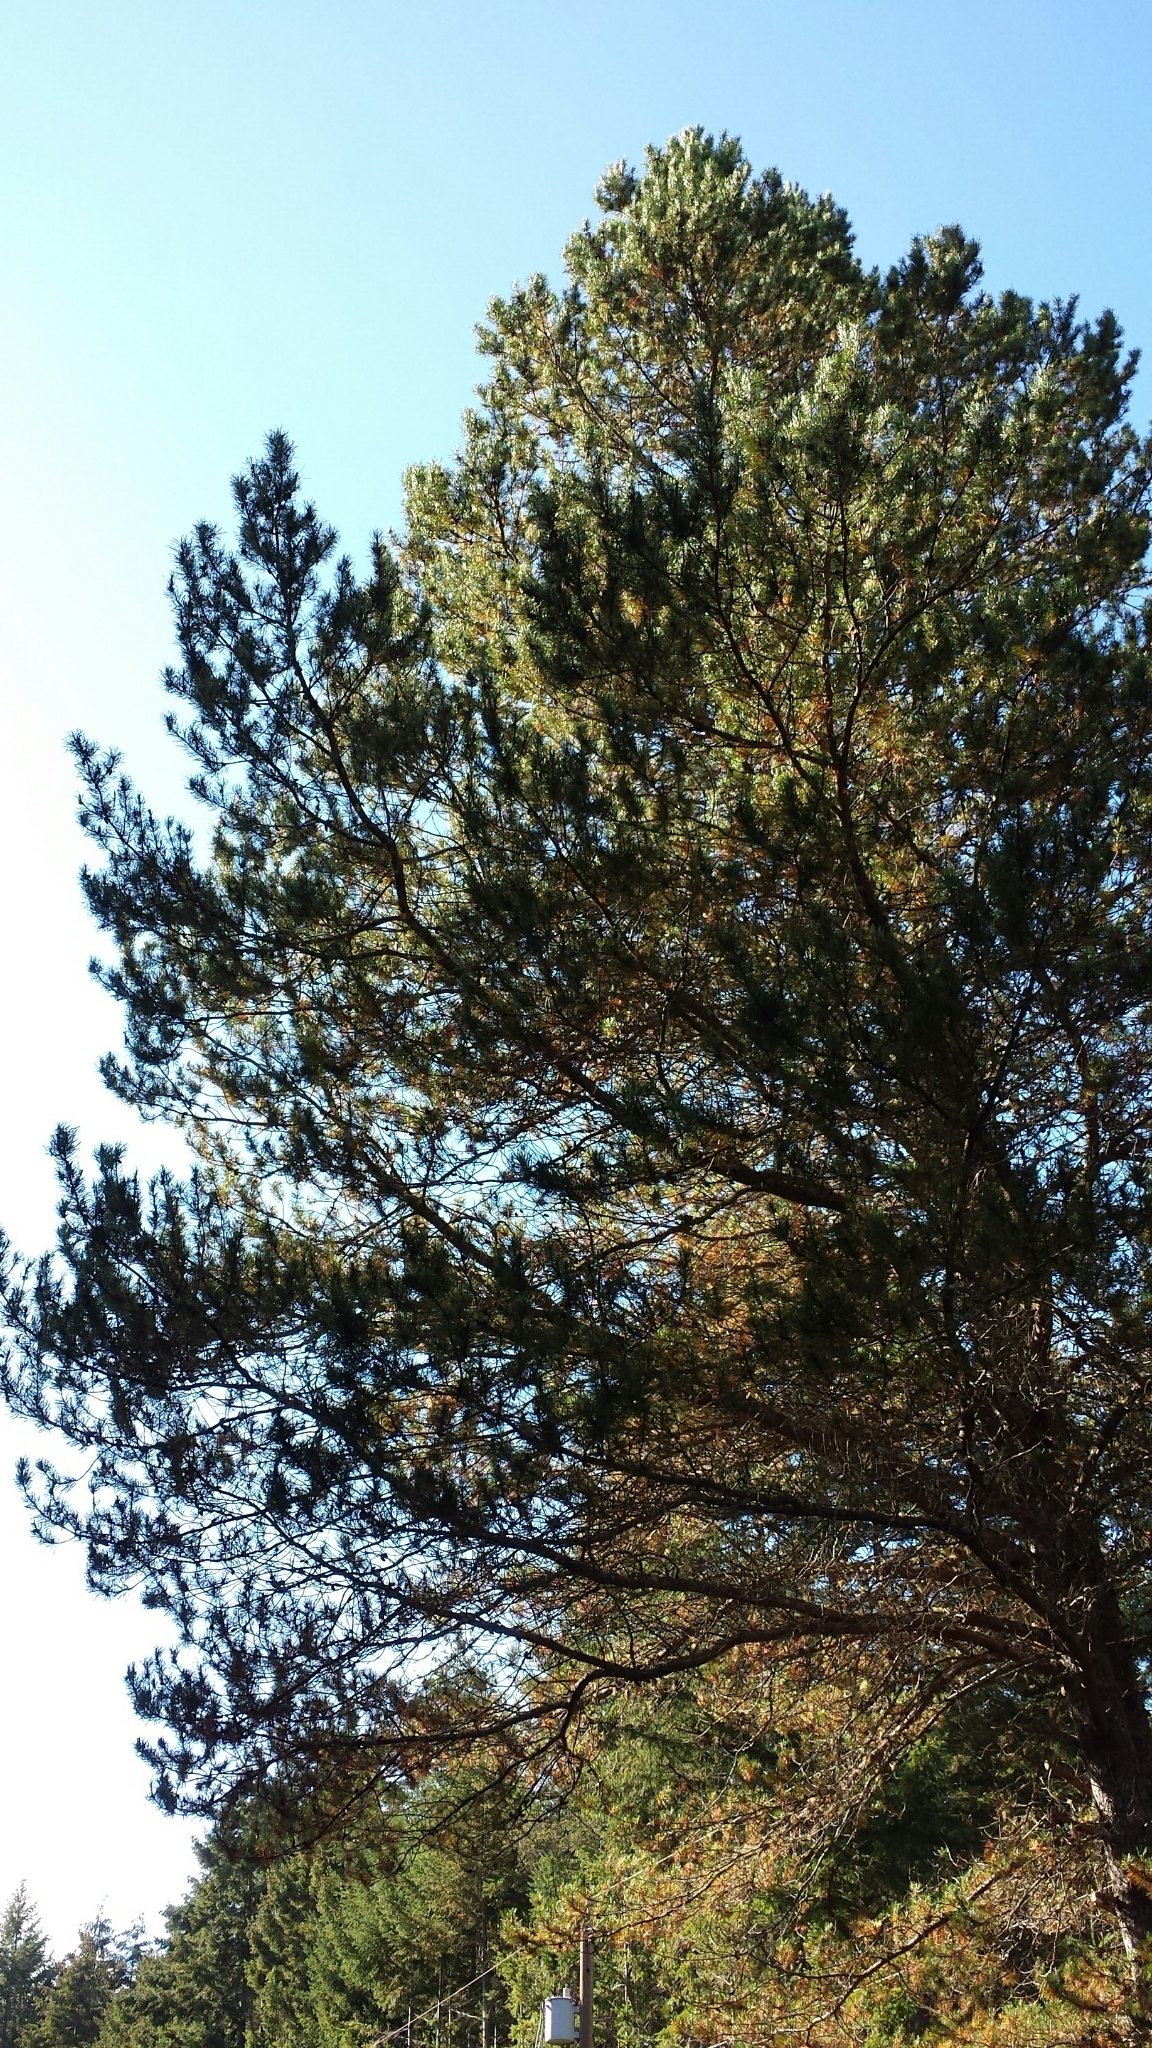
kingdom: Plantae
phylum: Tracheophyta
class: Pinopsida
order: Pinales
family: Pinaceae
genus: Pinus
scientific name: Pinus contorta
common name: Lodgepole pine
